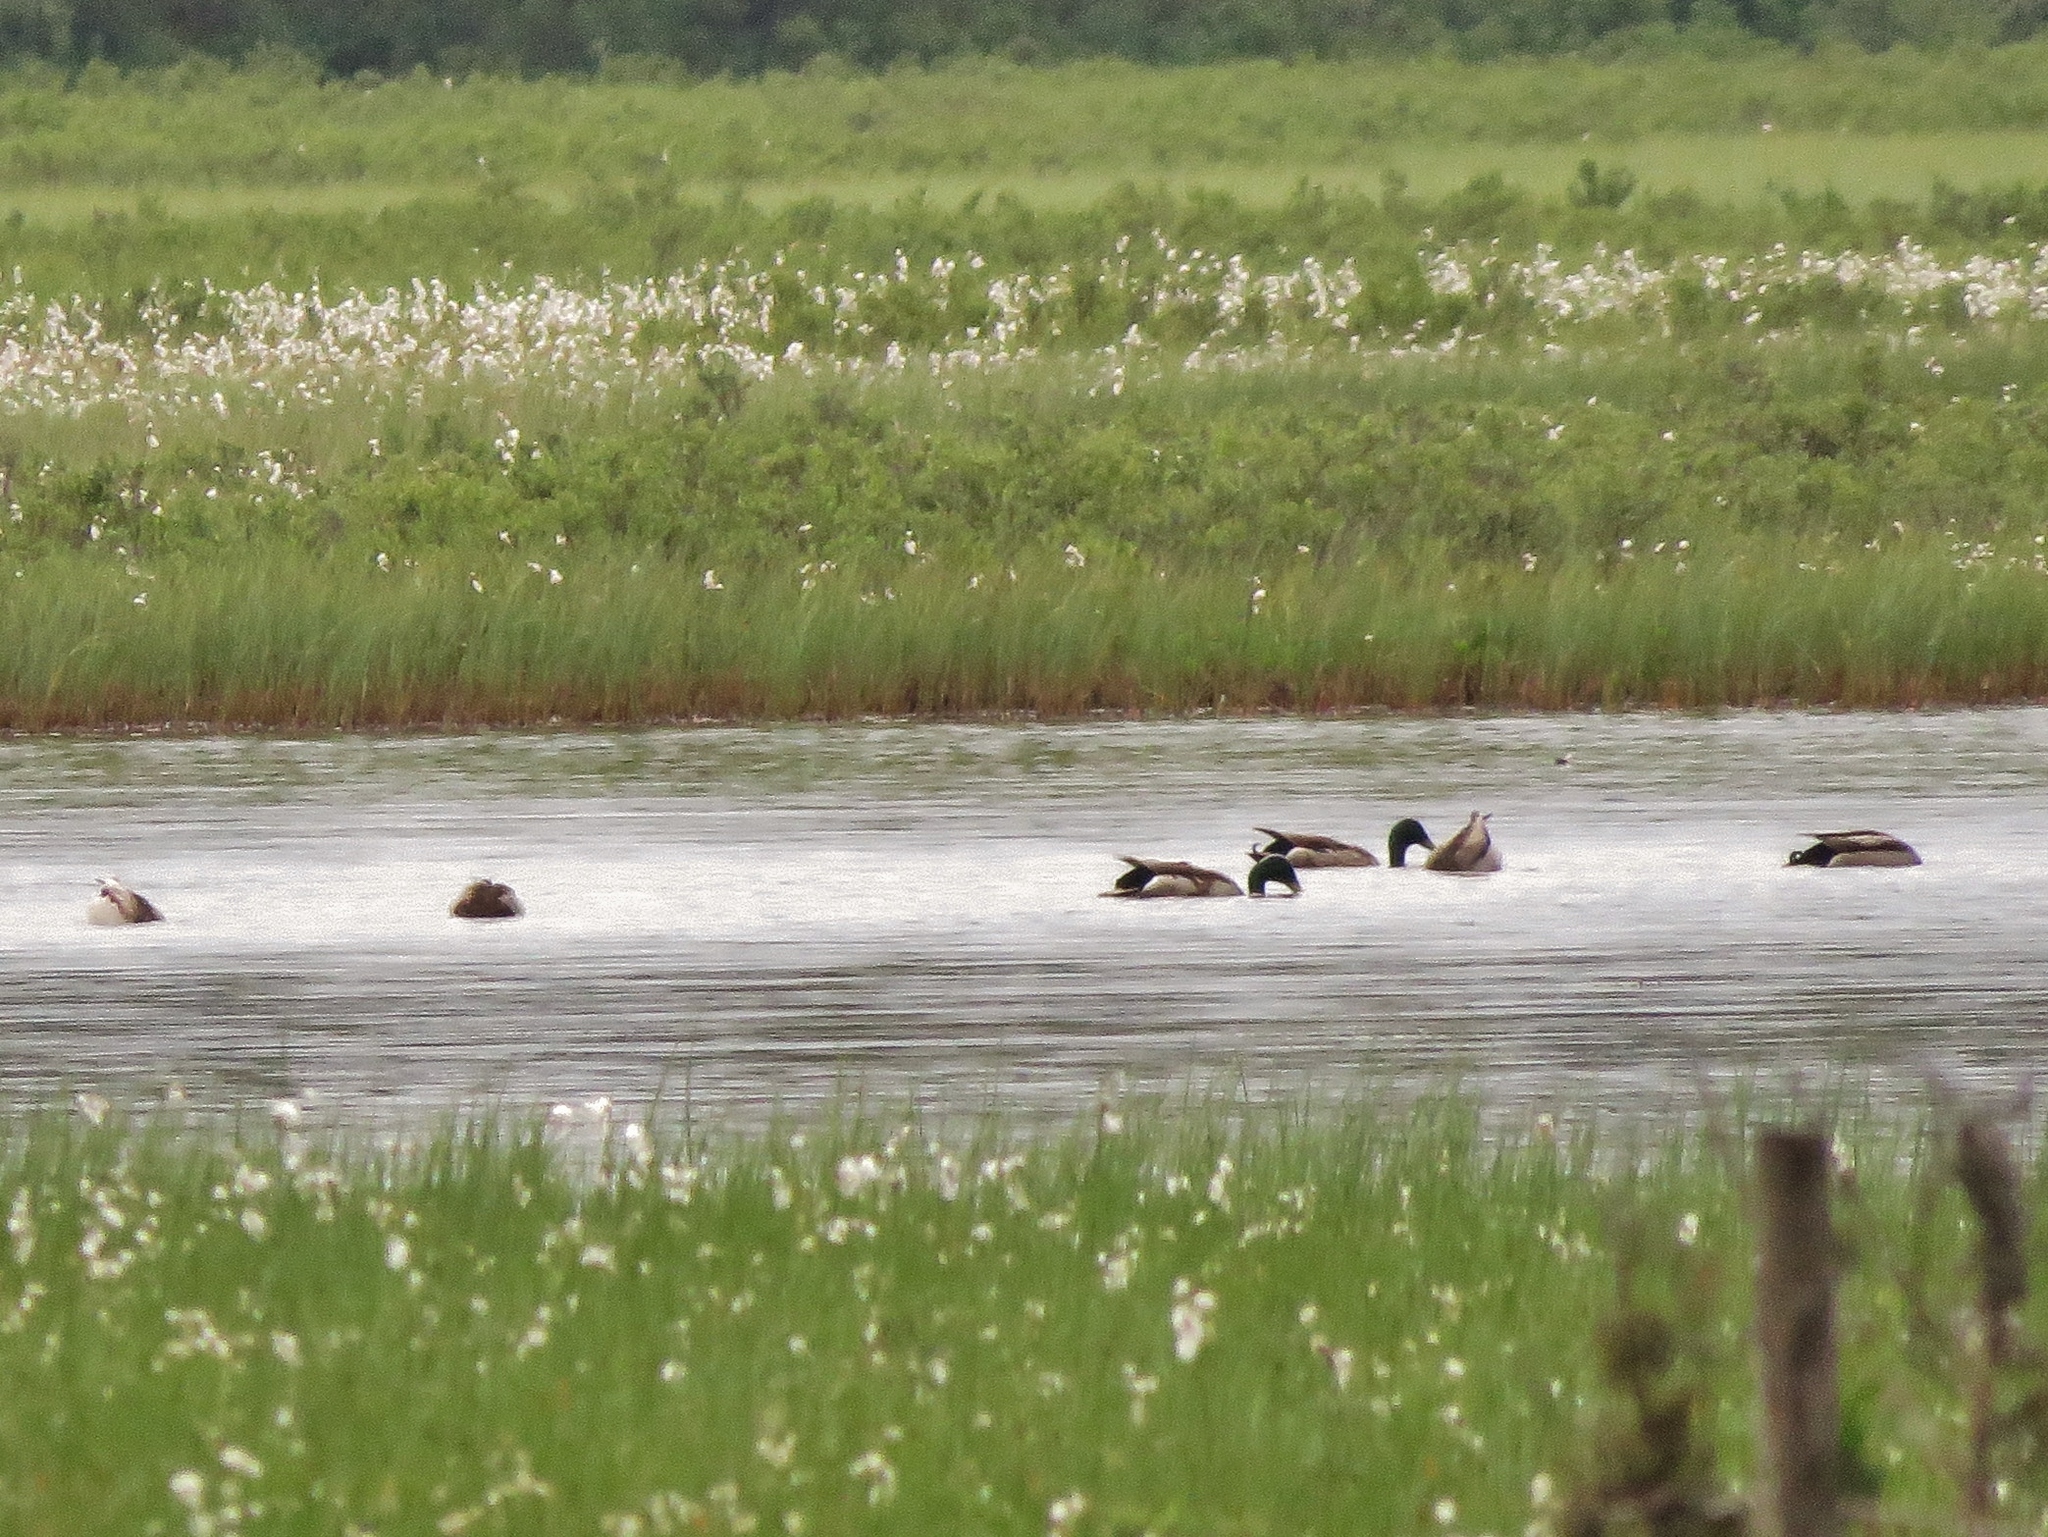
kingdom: Animalia
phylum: Chordata
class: Aves
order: Anseriformes
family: Anatidae
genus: Anas
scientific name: Anas platyrhynchos
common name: Mallard
